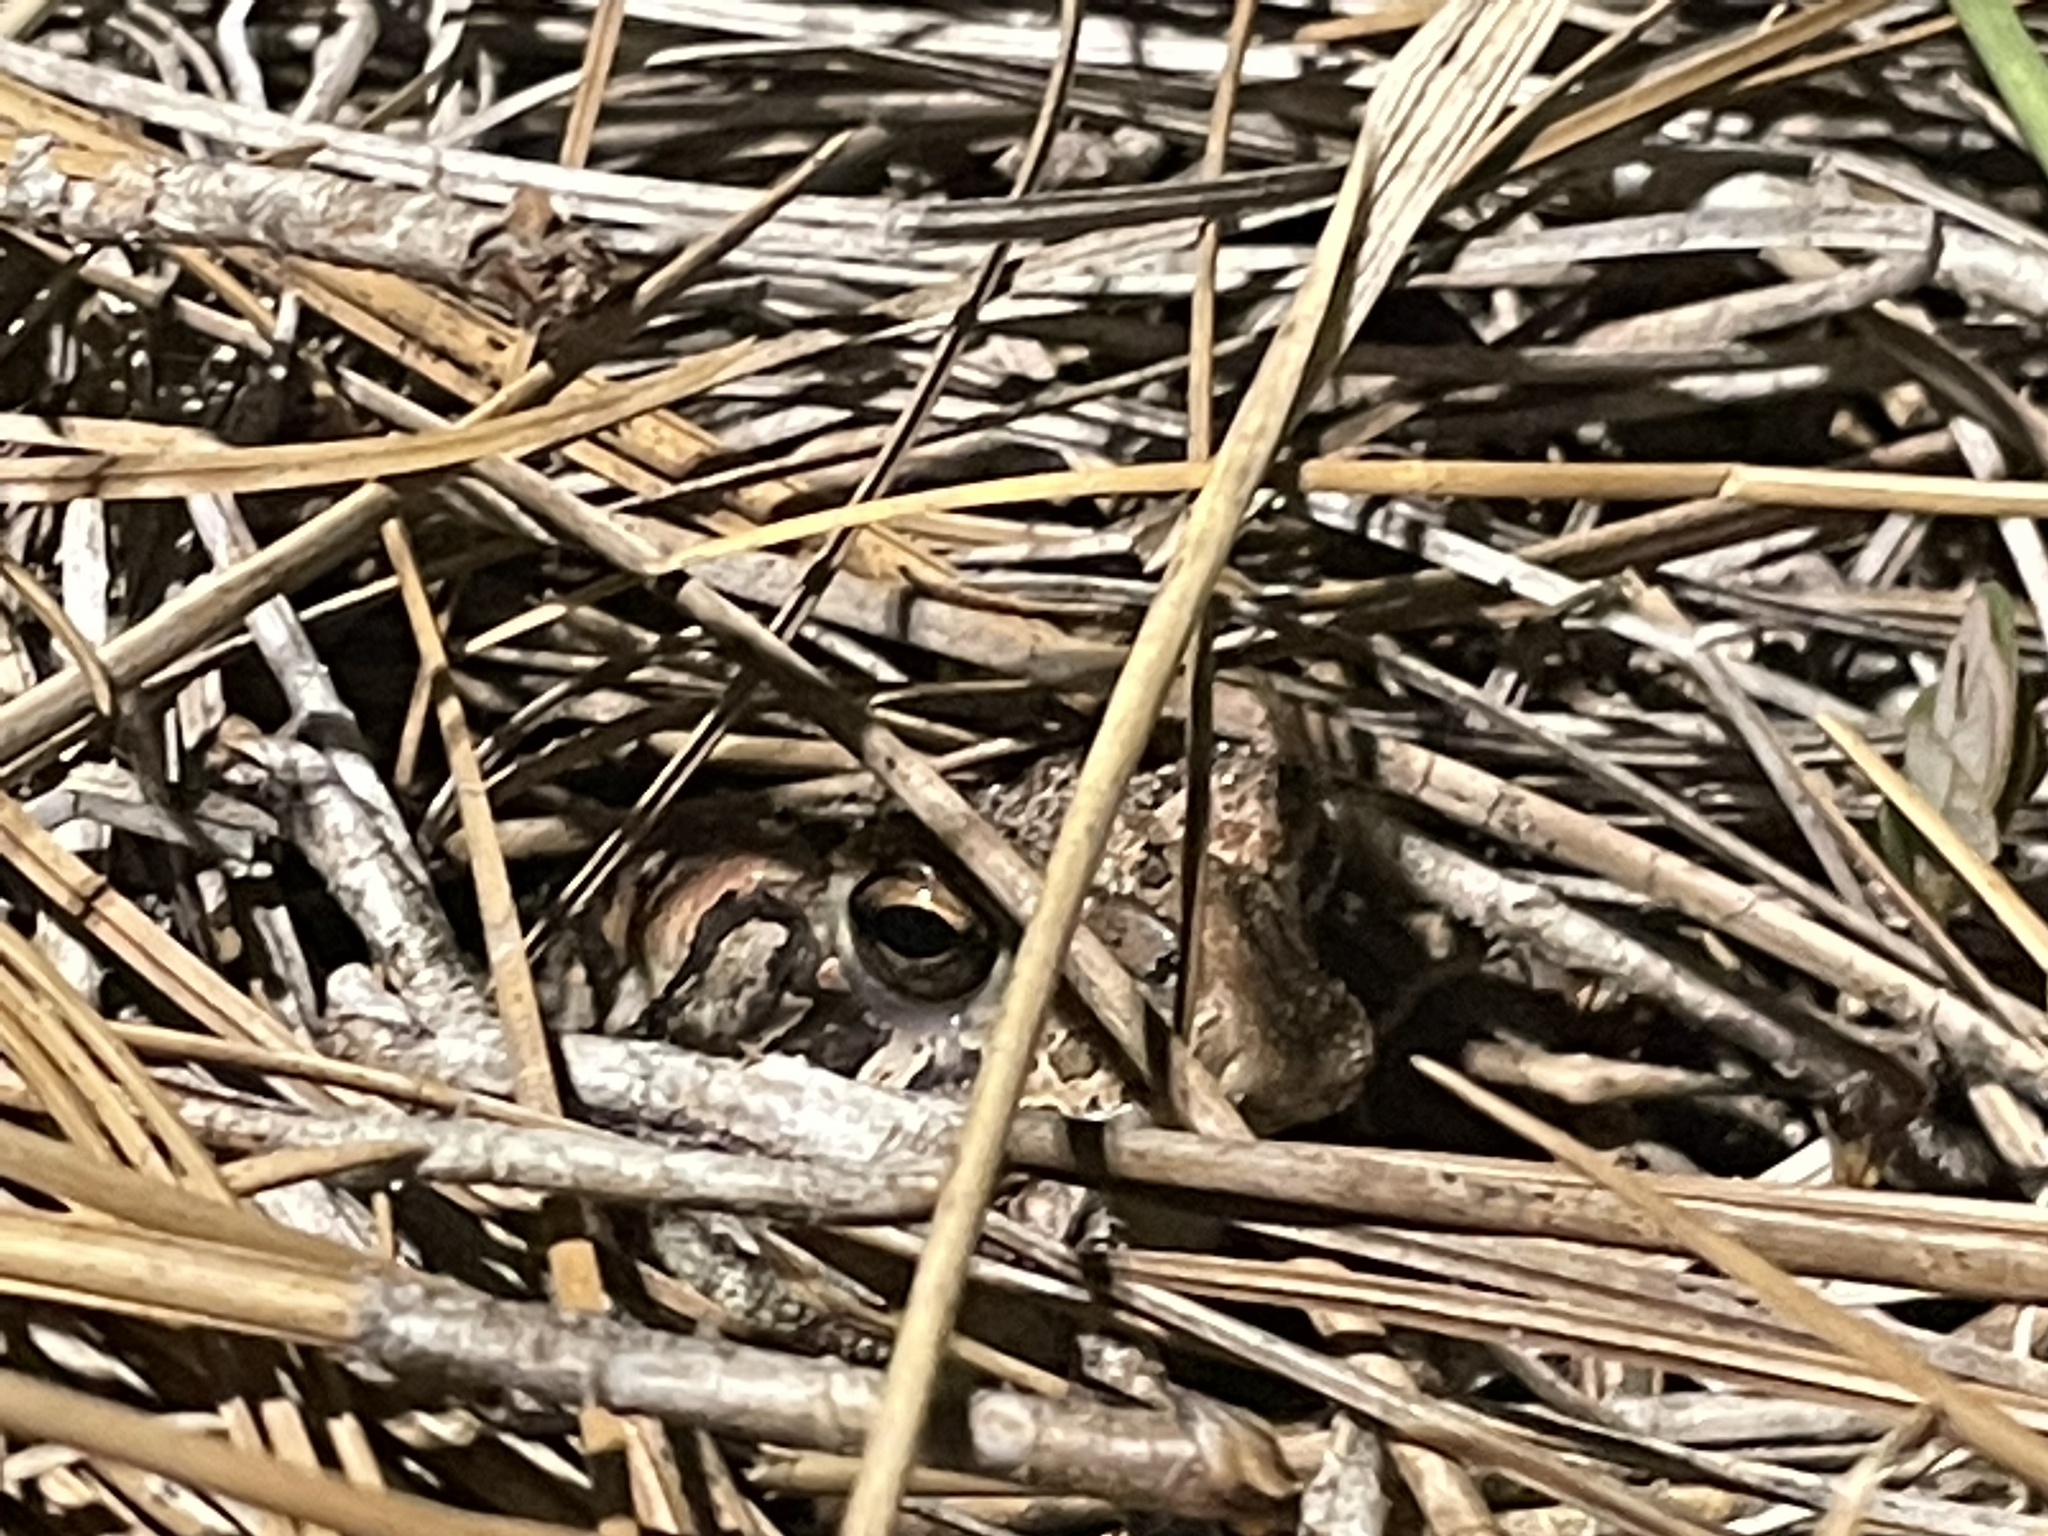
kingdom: Animalia
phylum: Chordata
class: Amphibia
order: Anura
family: Bufonidae
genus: Anaxyrus
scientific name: Anaxyrus terrestris
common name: Southern toad
